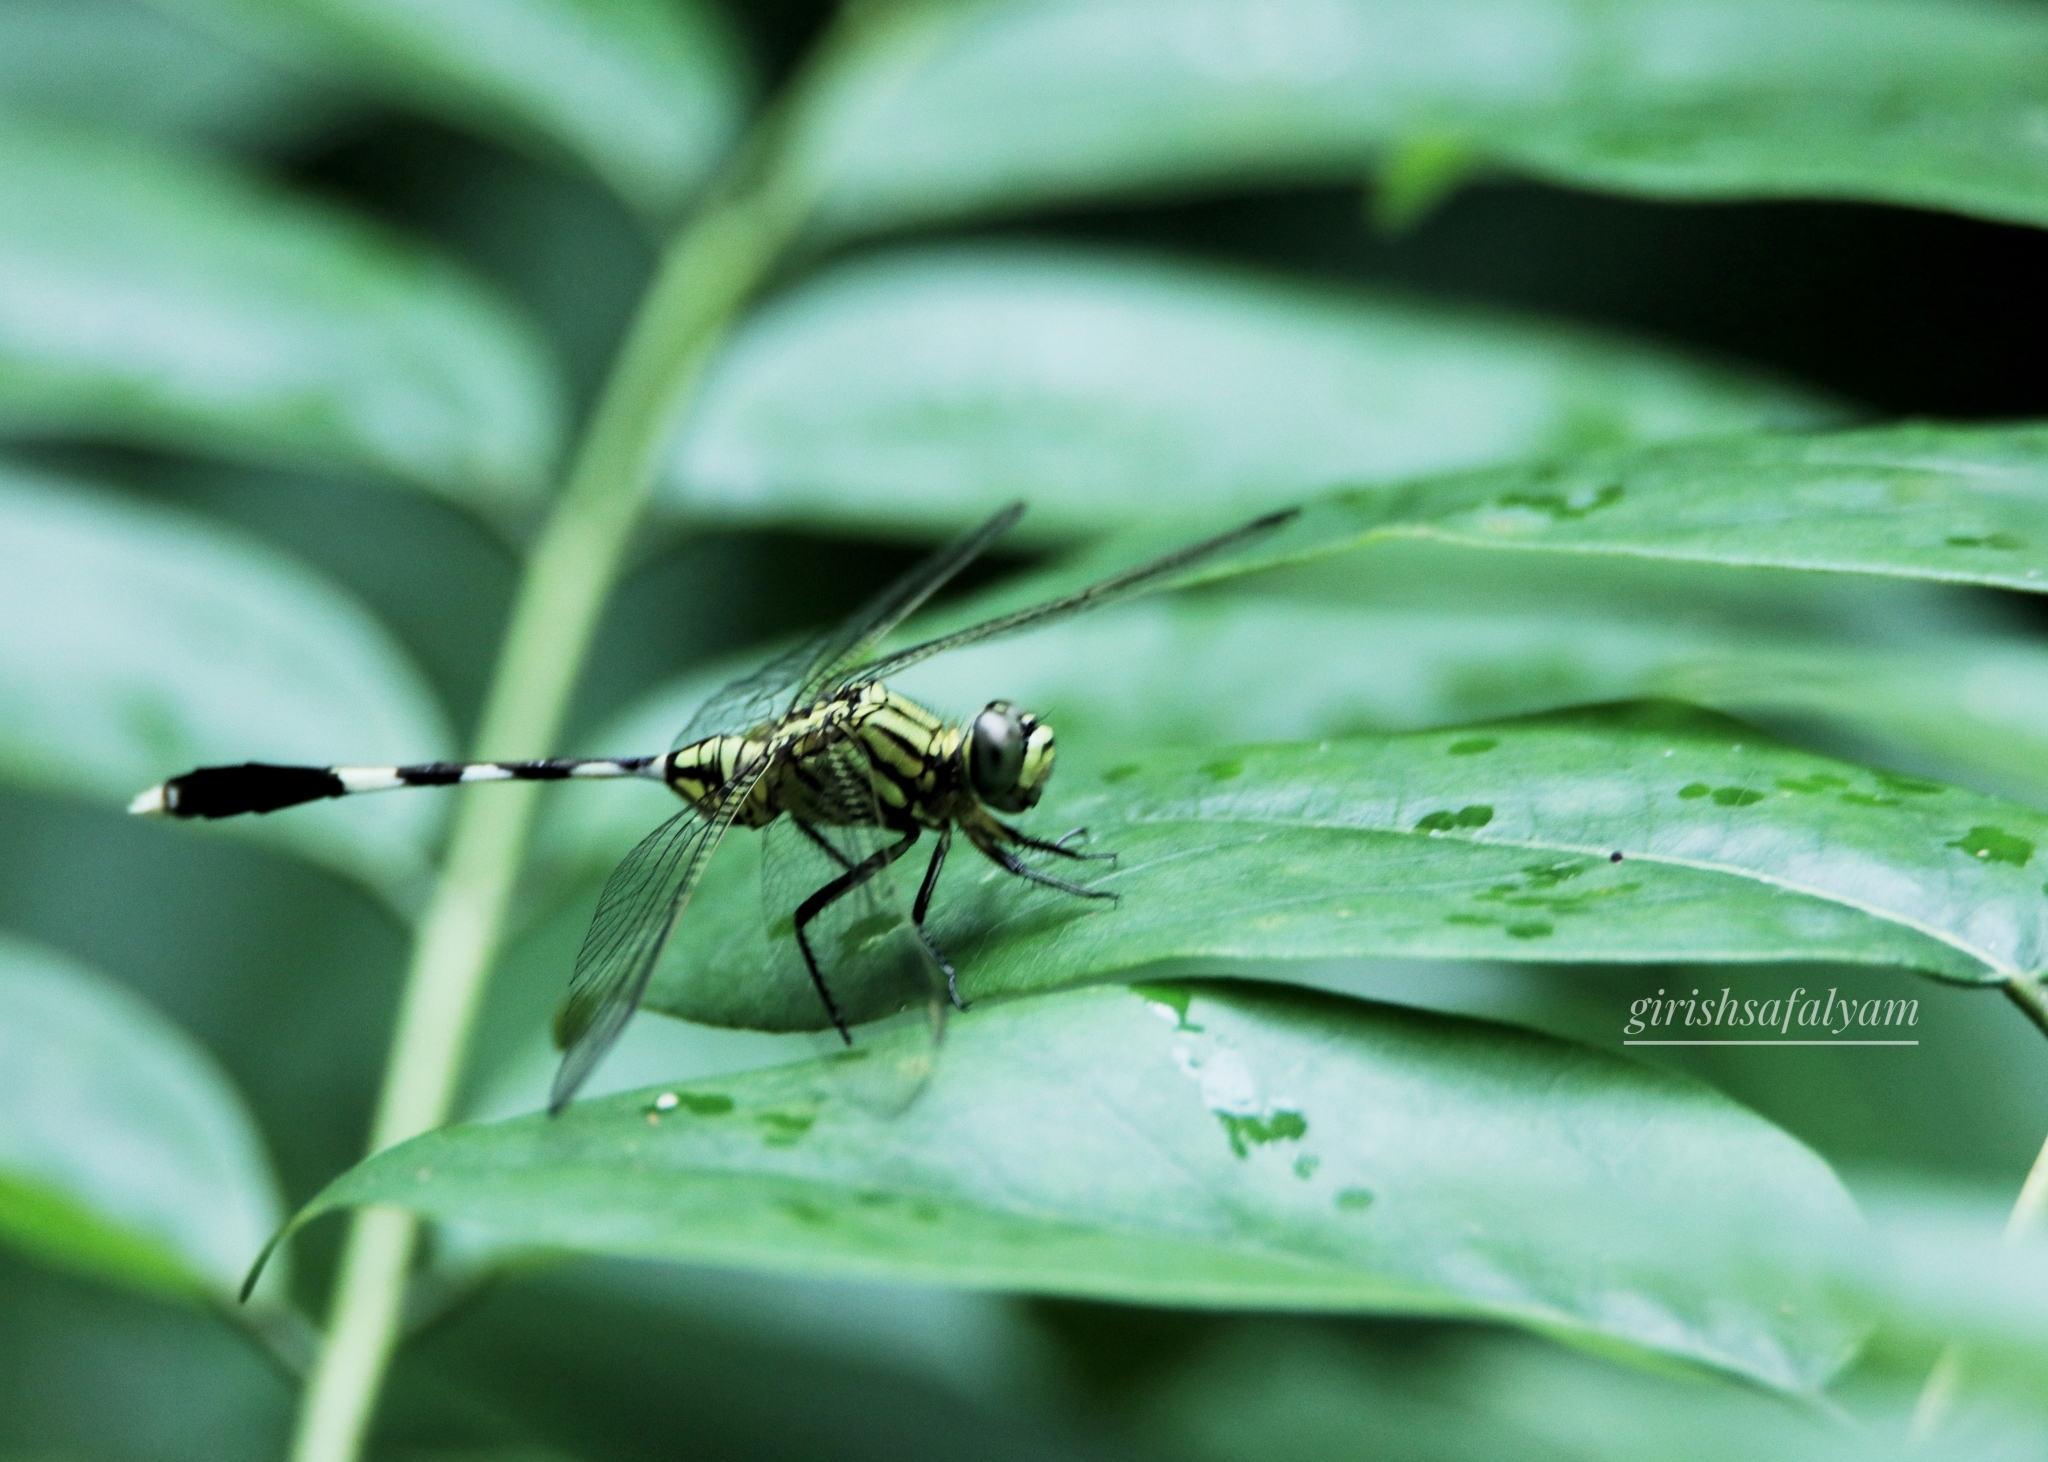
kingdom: Animalia
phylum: Arthropoda
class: Insecta
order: Odonata
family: Libellulidae
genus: Orthetrum
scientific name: Orthetrum sabina
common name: Slender skimmer
